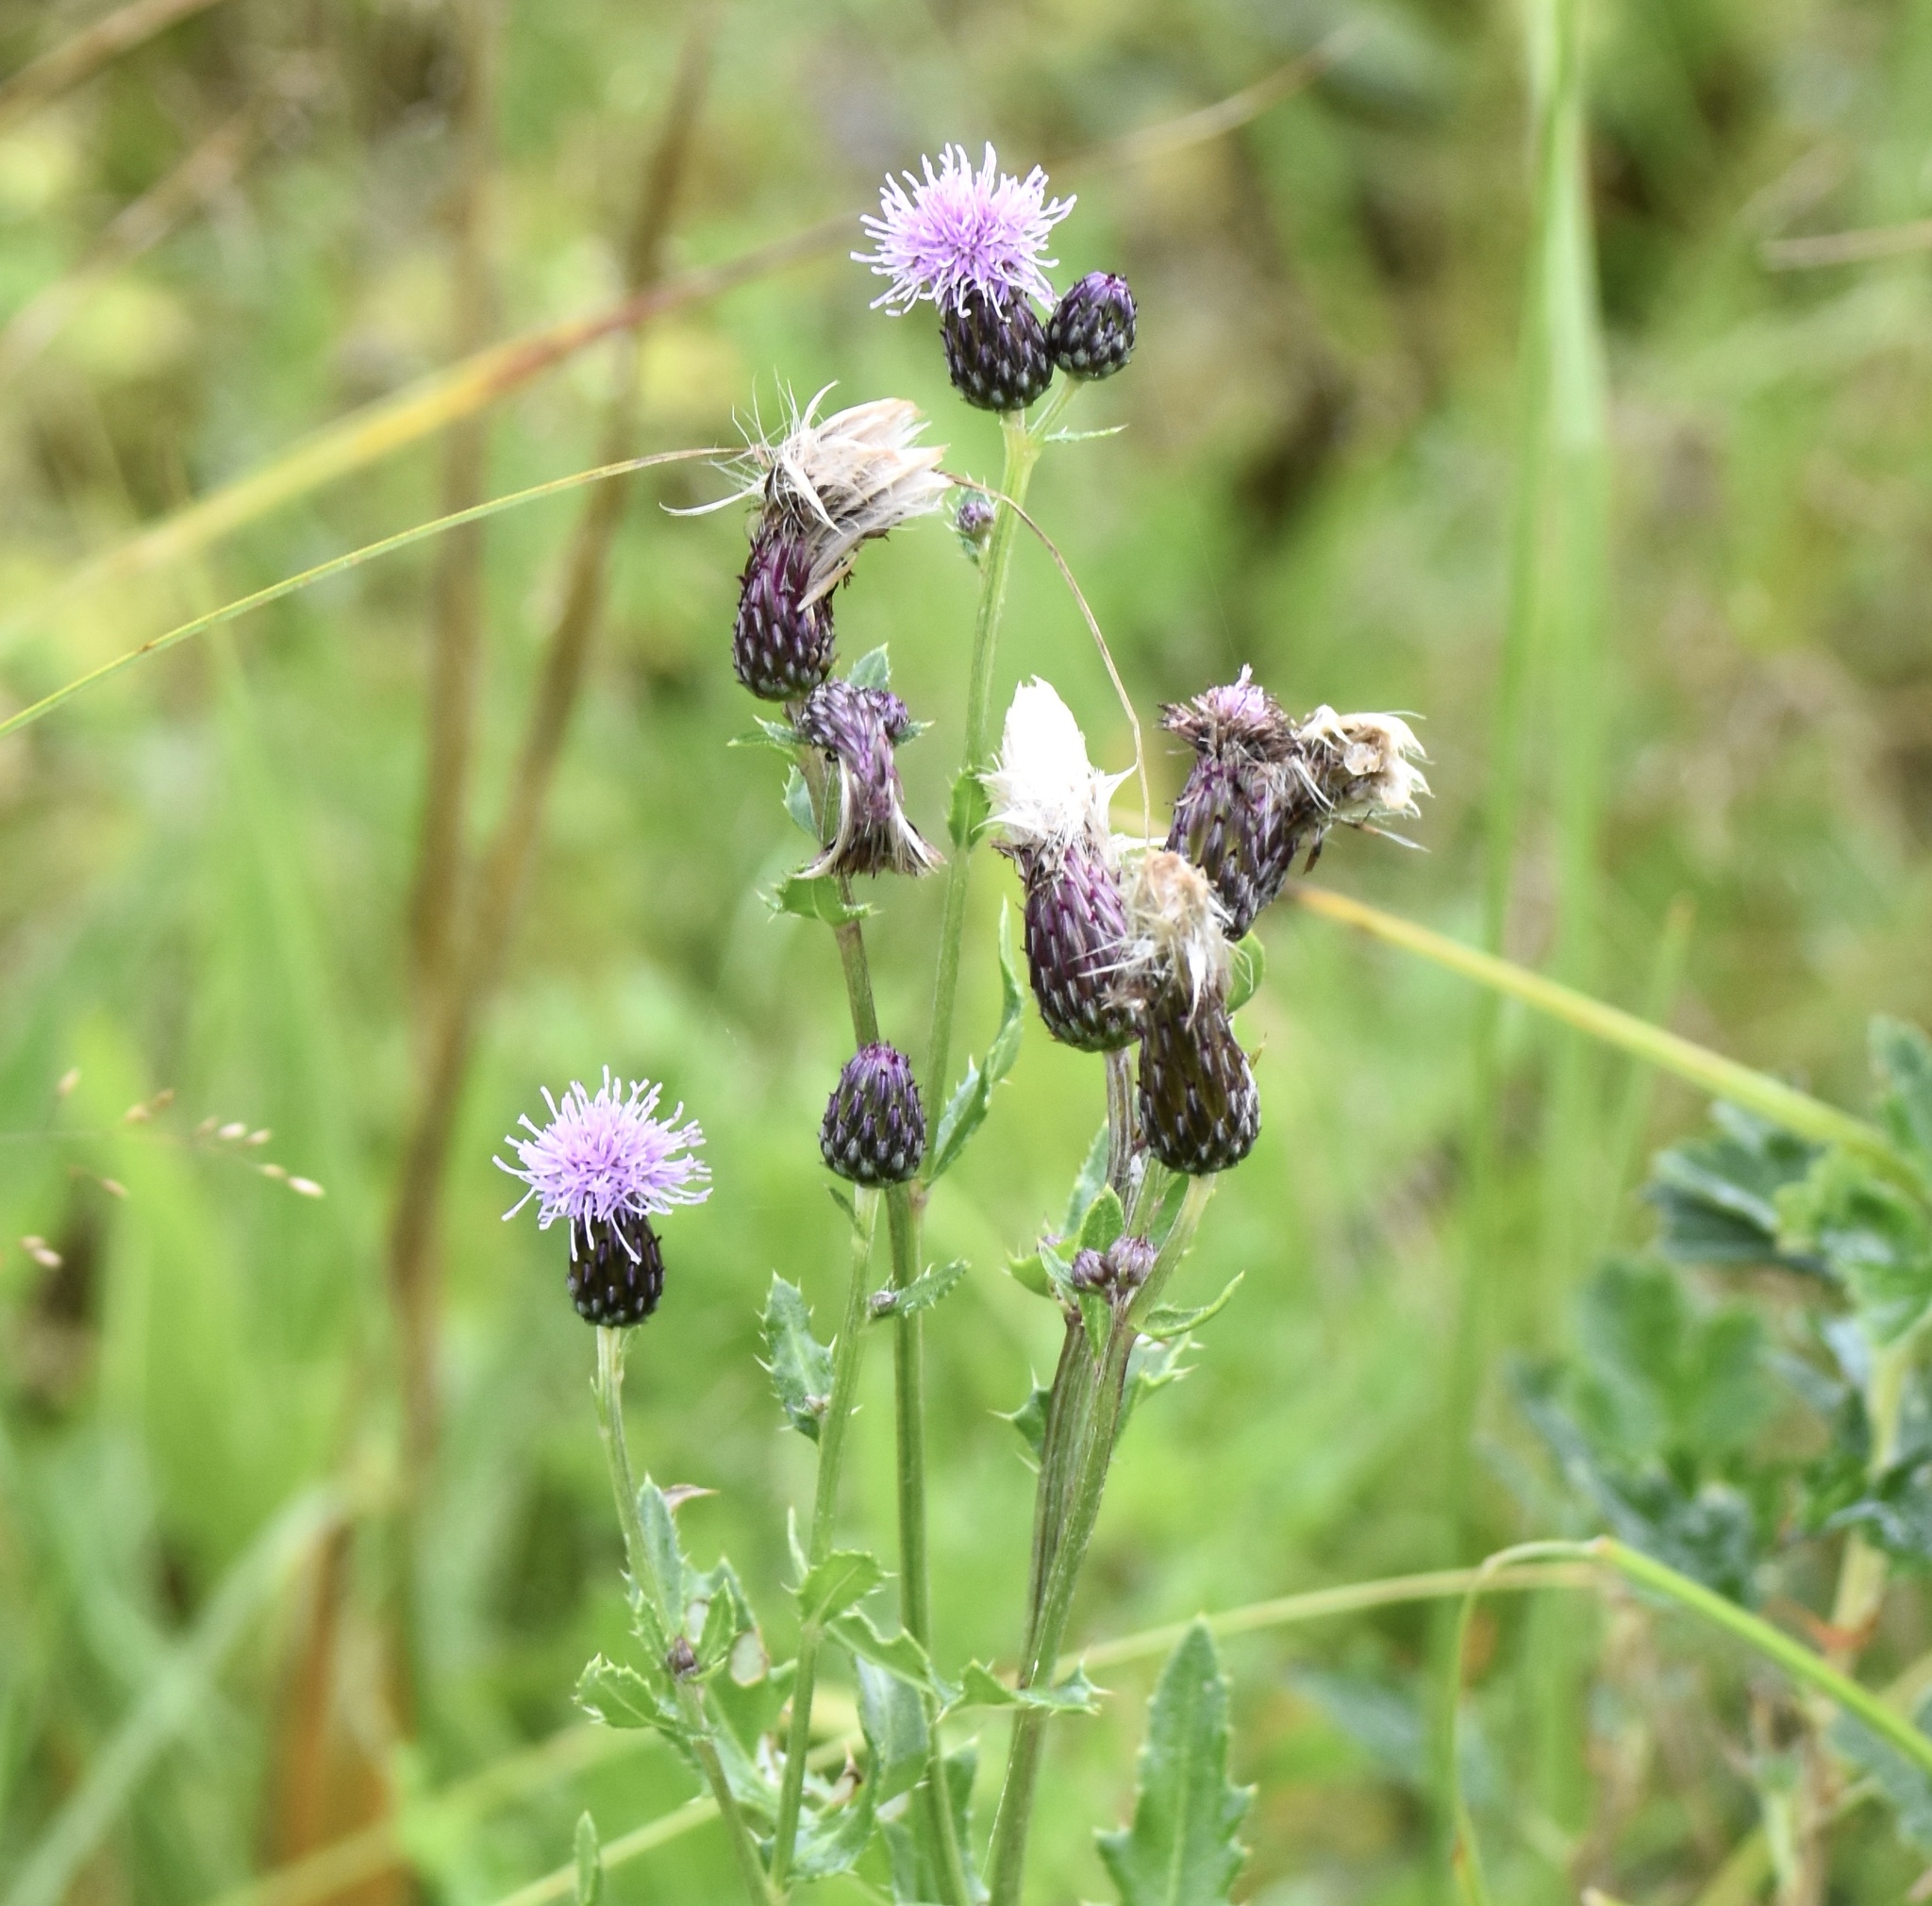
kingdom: Plantae
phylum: Tracheophyta
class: Magnoliopsida
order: Asterales
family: Asteraceae
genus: Cirsium
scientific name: Cirsium arvense
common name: Creeping thistle
